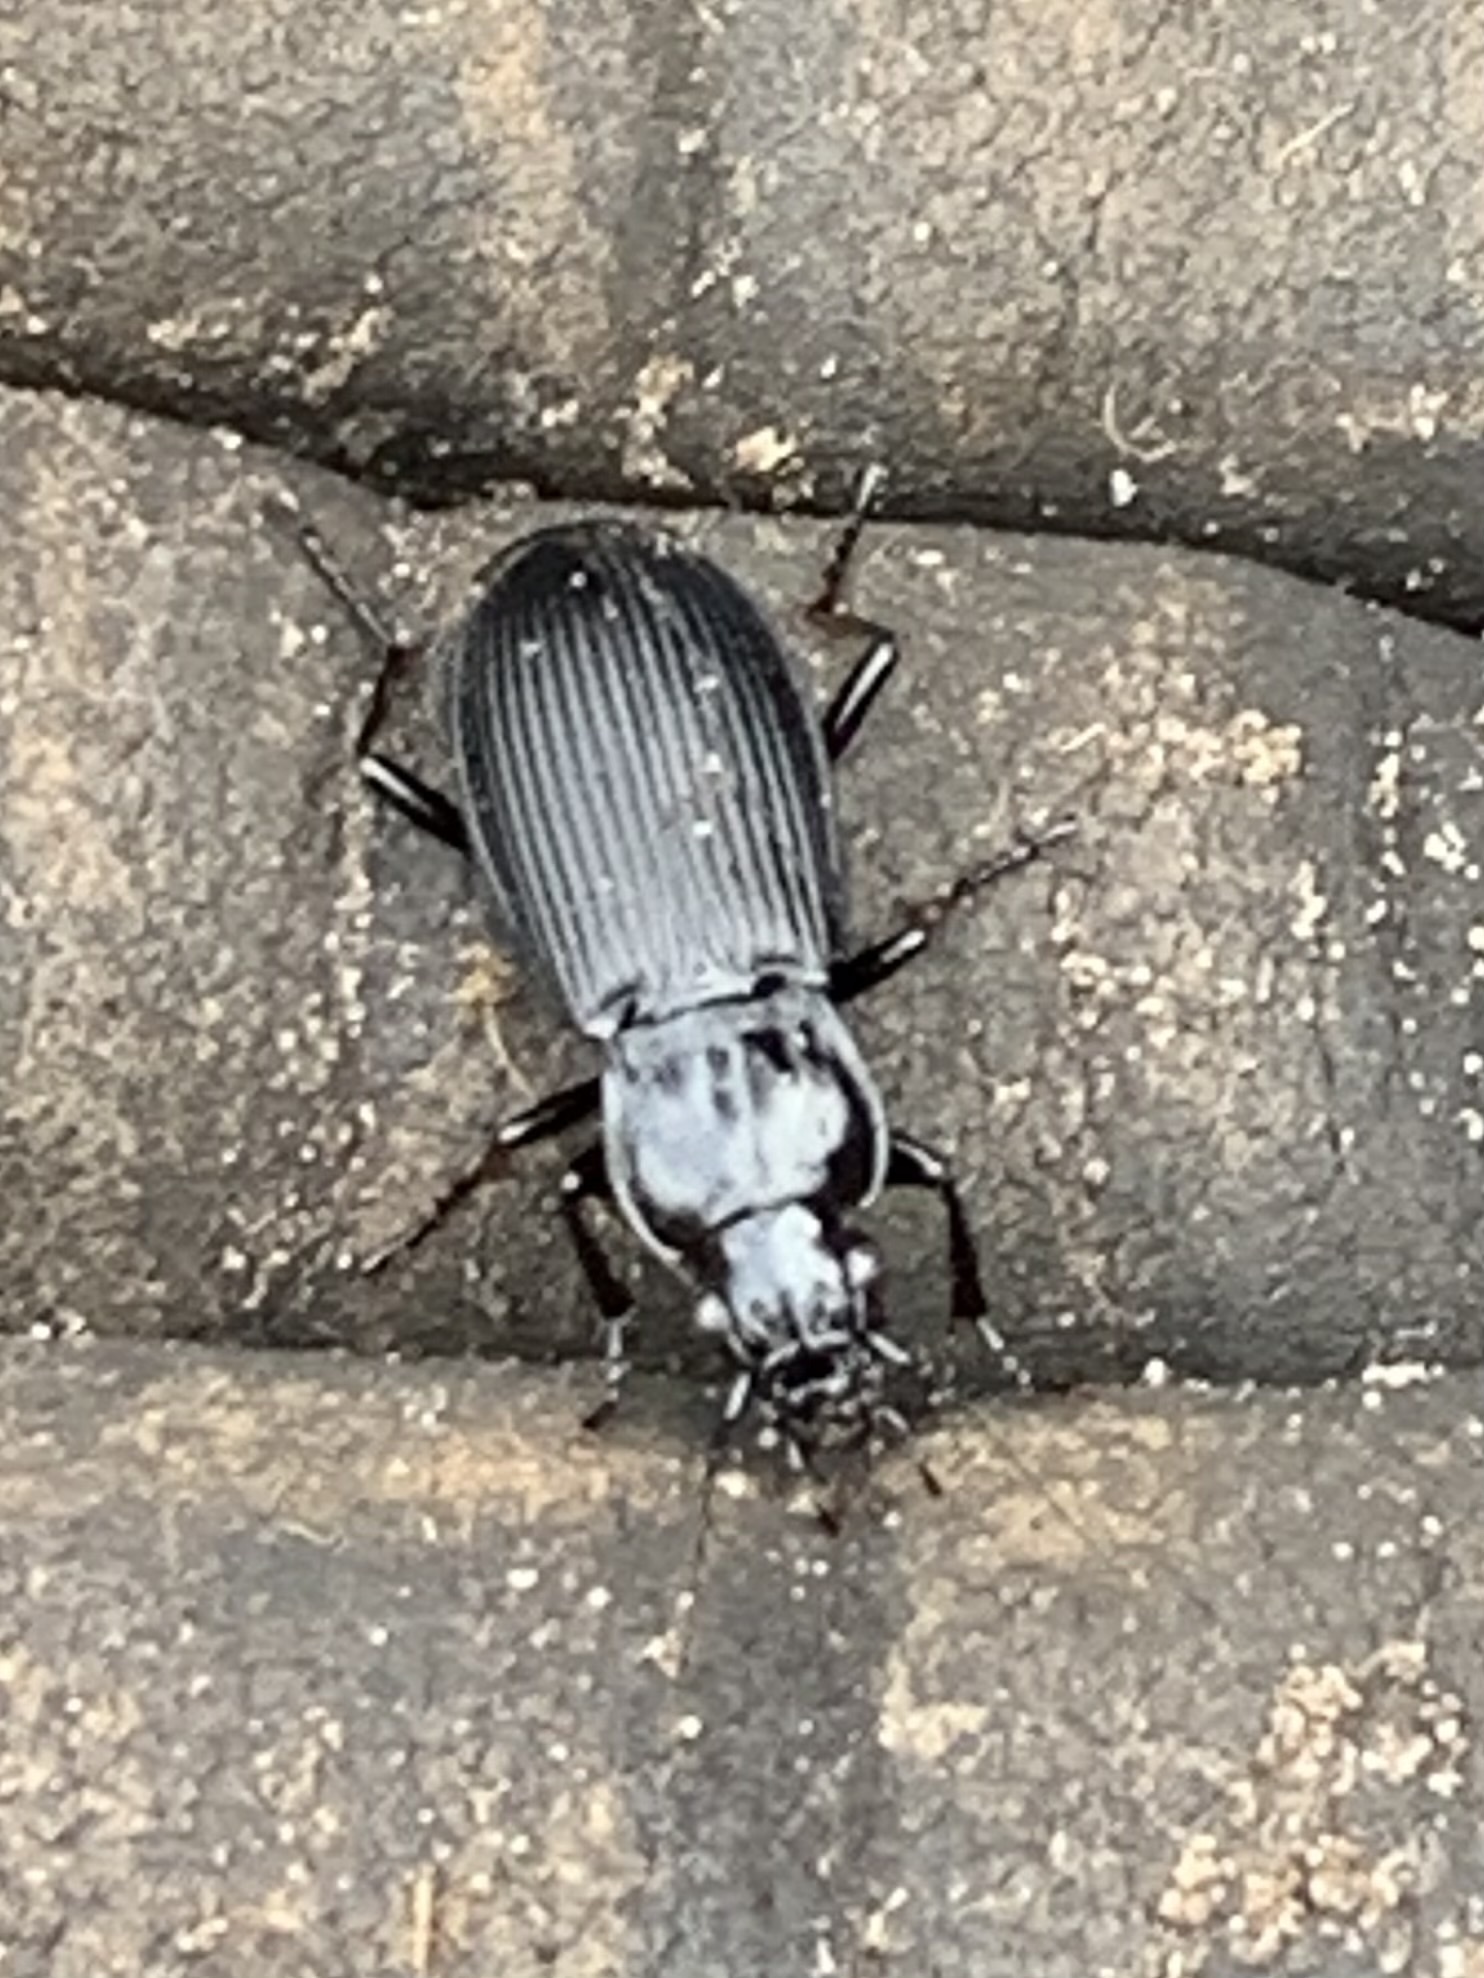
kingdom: Animalia
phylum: Arthropoda
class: Insecta
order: Coleoptera
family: Carabidae
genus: Pterostichus
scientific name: Pterostichus niger
